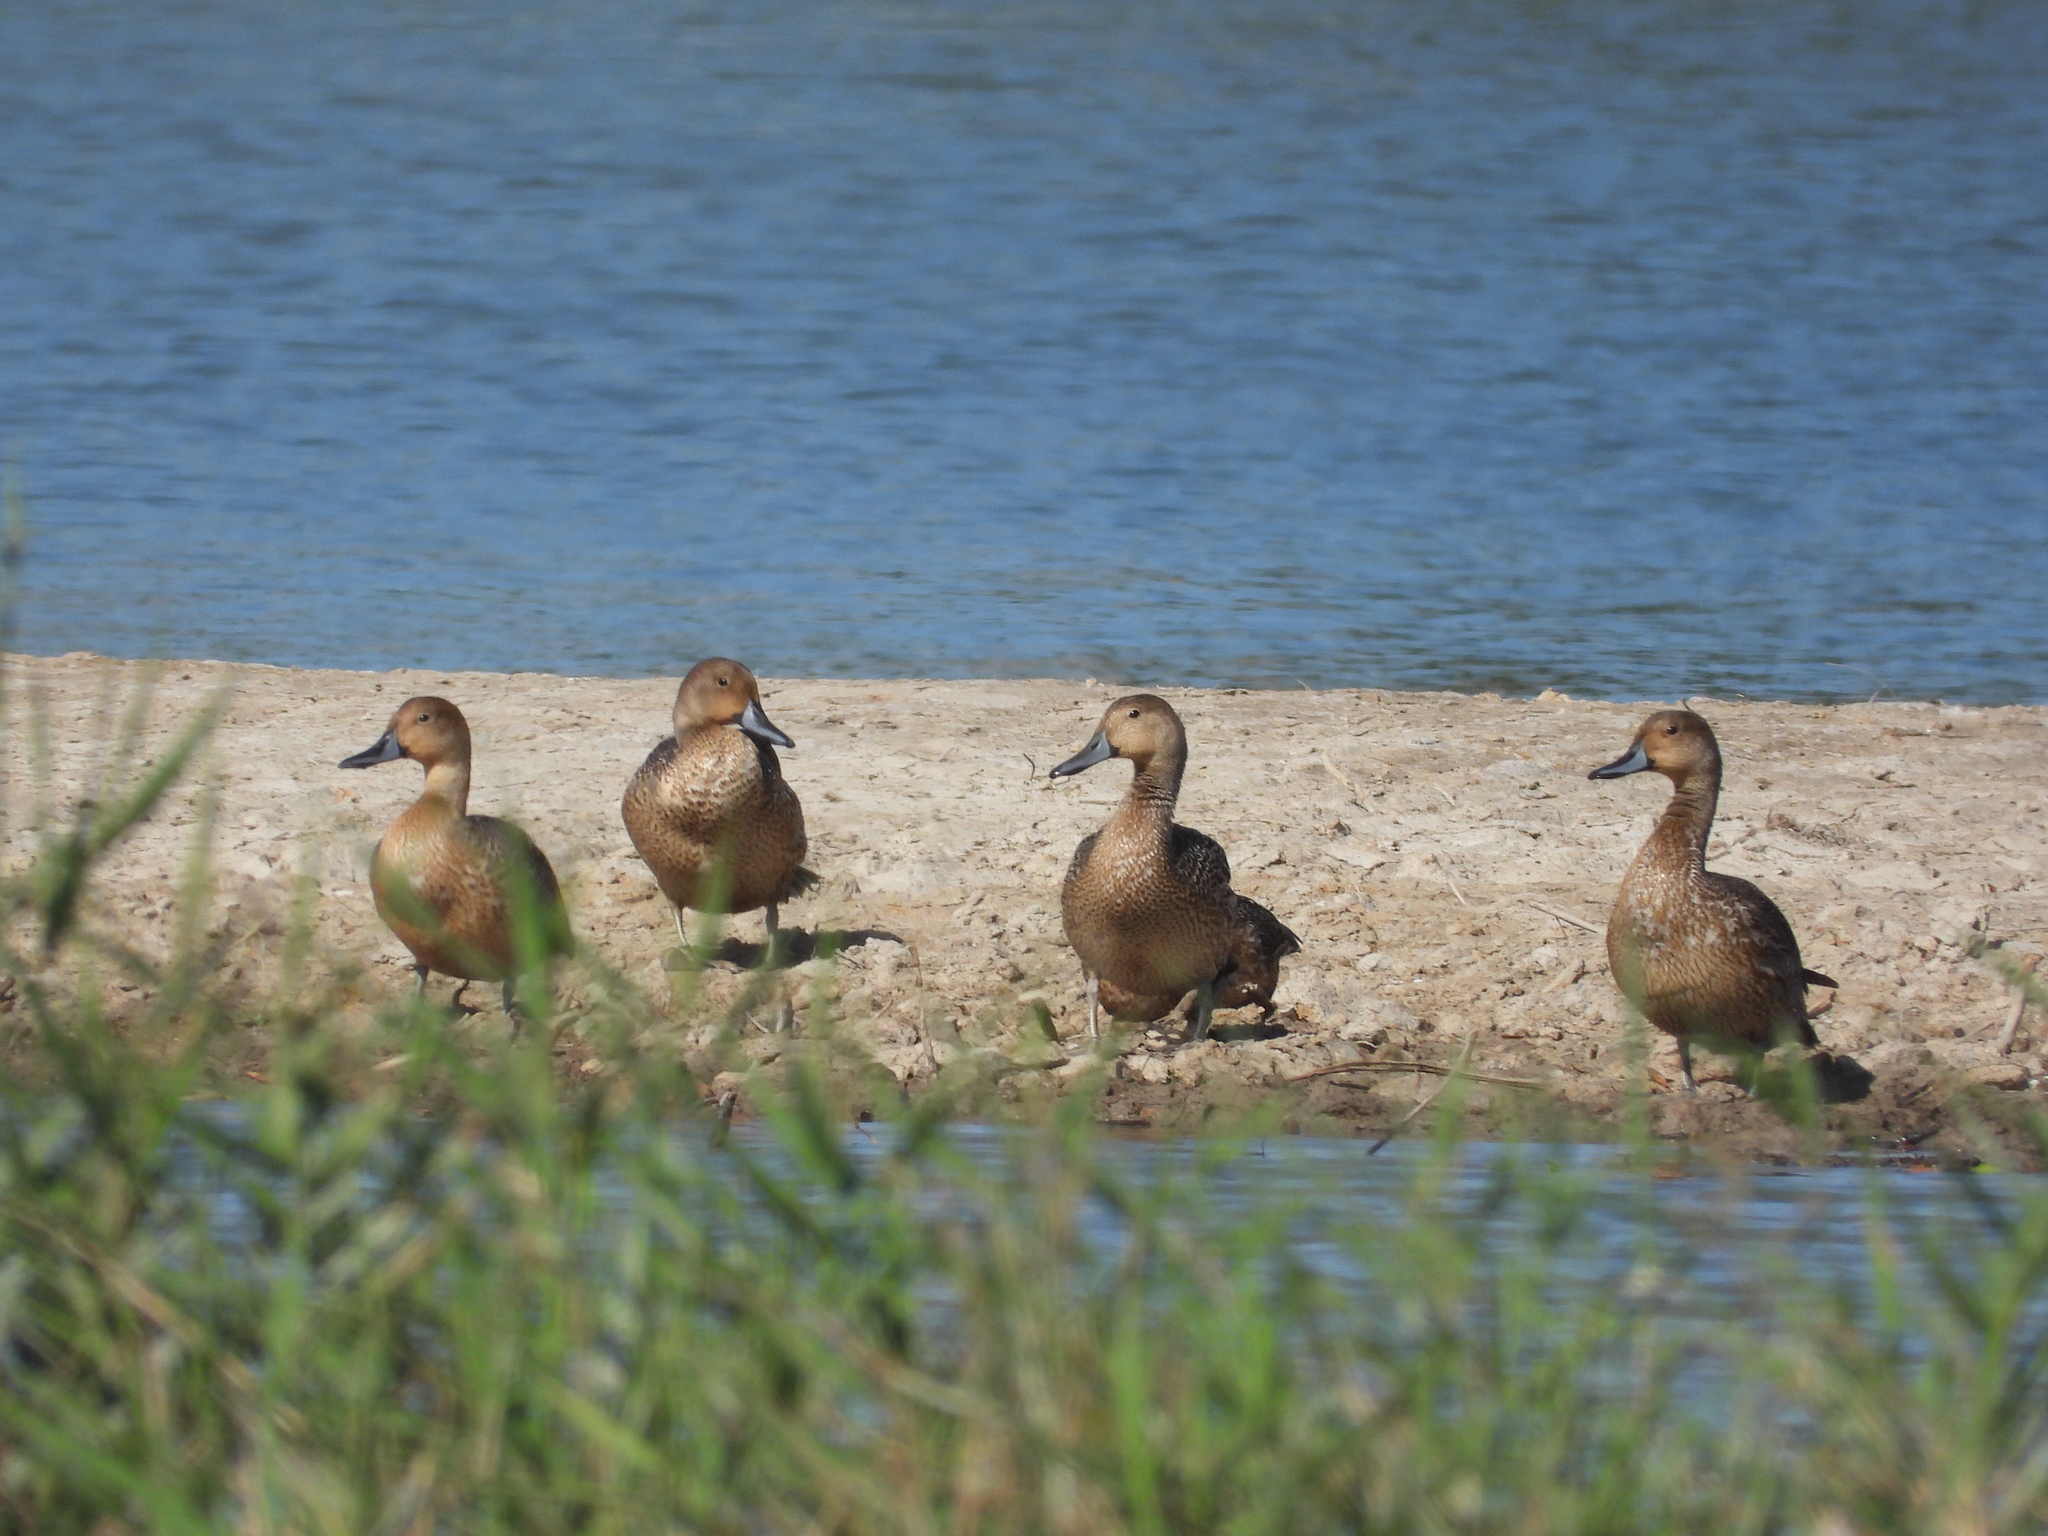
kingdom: Animalia
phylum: Chordata
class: Aves
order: Anseriformes
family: Anatidae
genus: Anas
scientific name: Anas acuta
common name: Northern pintail
